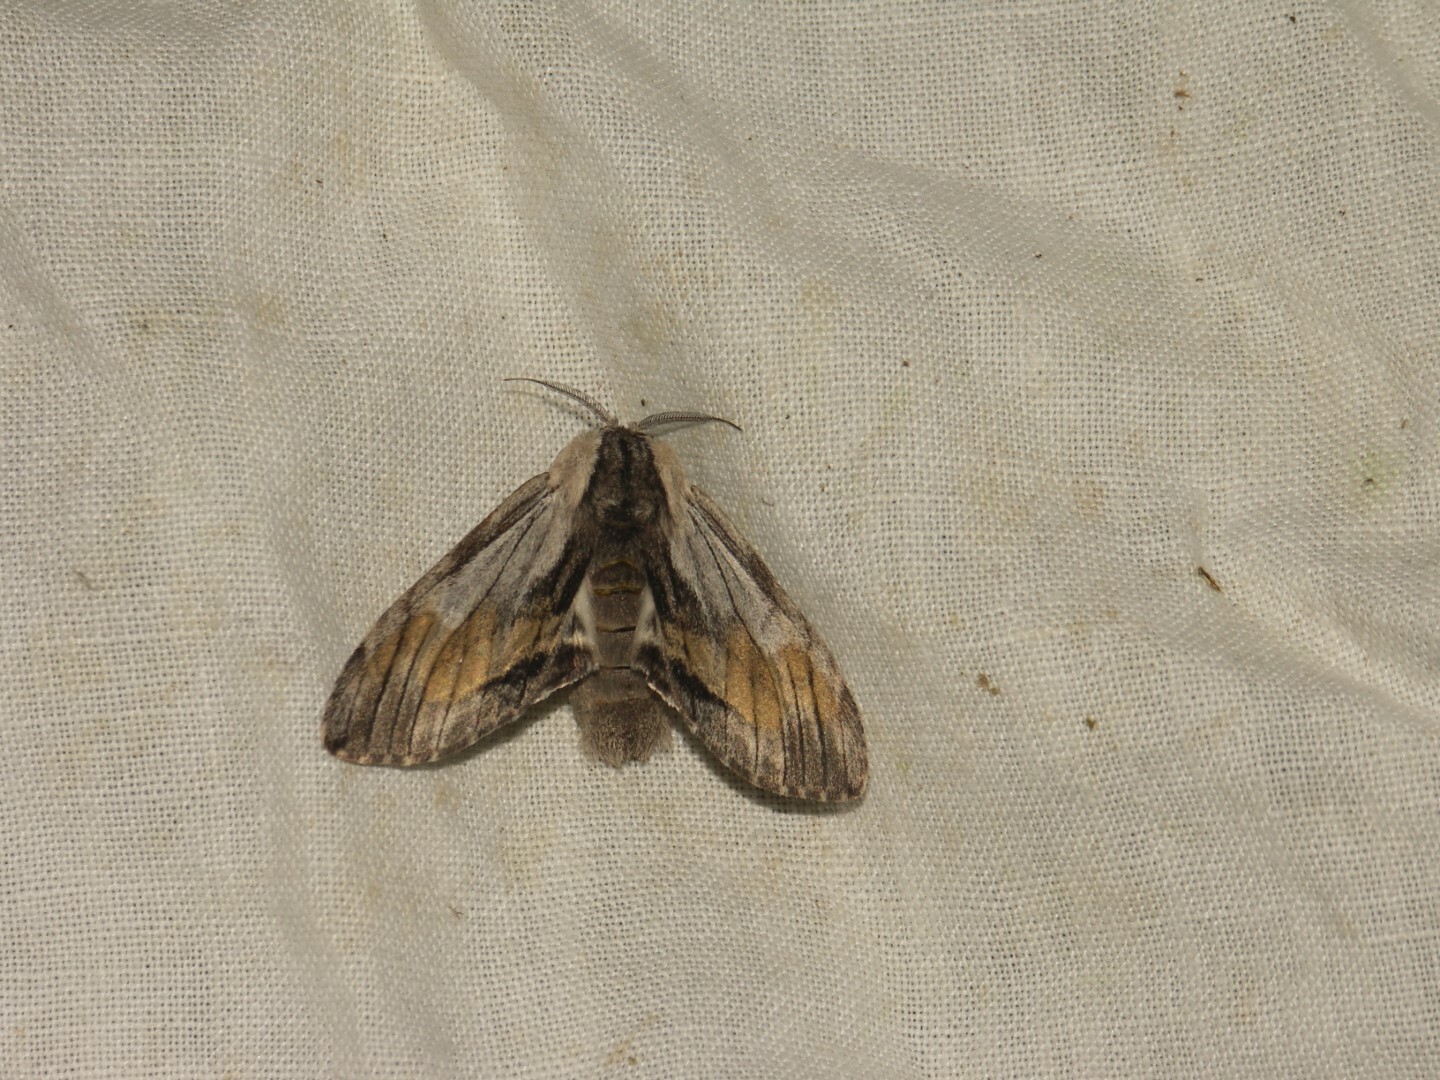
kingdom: Animalia
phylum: Arthropoda
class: Insecta
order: Lepidoptera
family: Notodontidae
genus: Harpyia
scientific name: Harpyia milhauseri
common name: Tawny prominent
